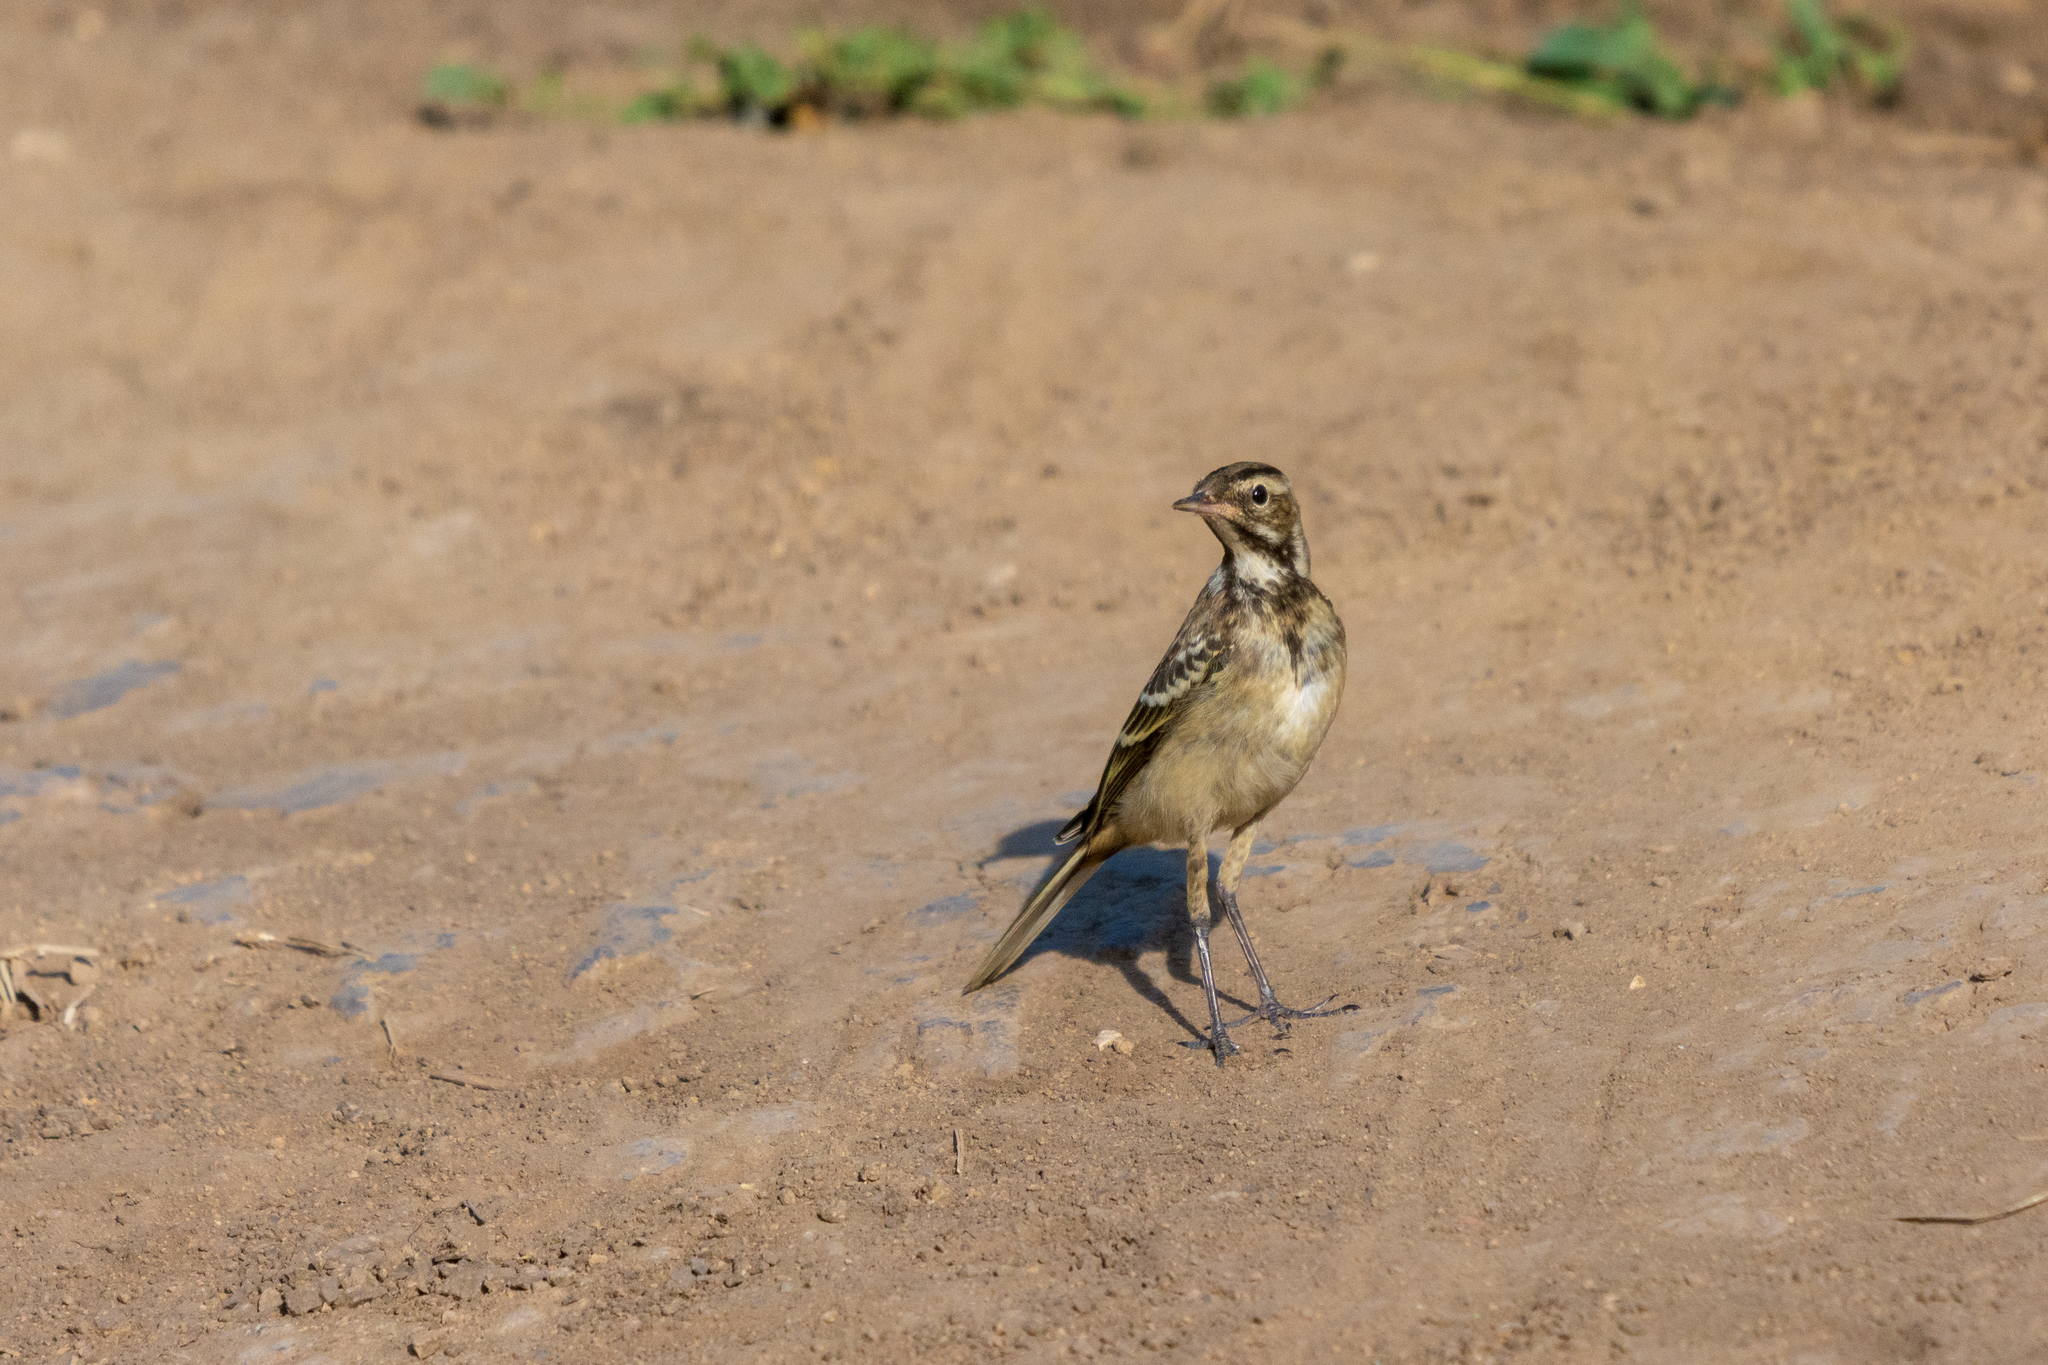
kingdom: Animalia
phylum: Chordata
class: Aves
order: Passeriformes
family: Motacillidae
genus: Motacilla
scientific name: Motacilla alba
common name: White wagtail
